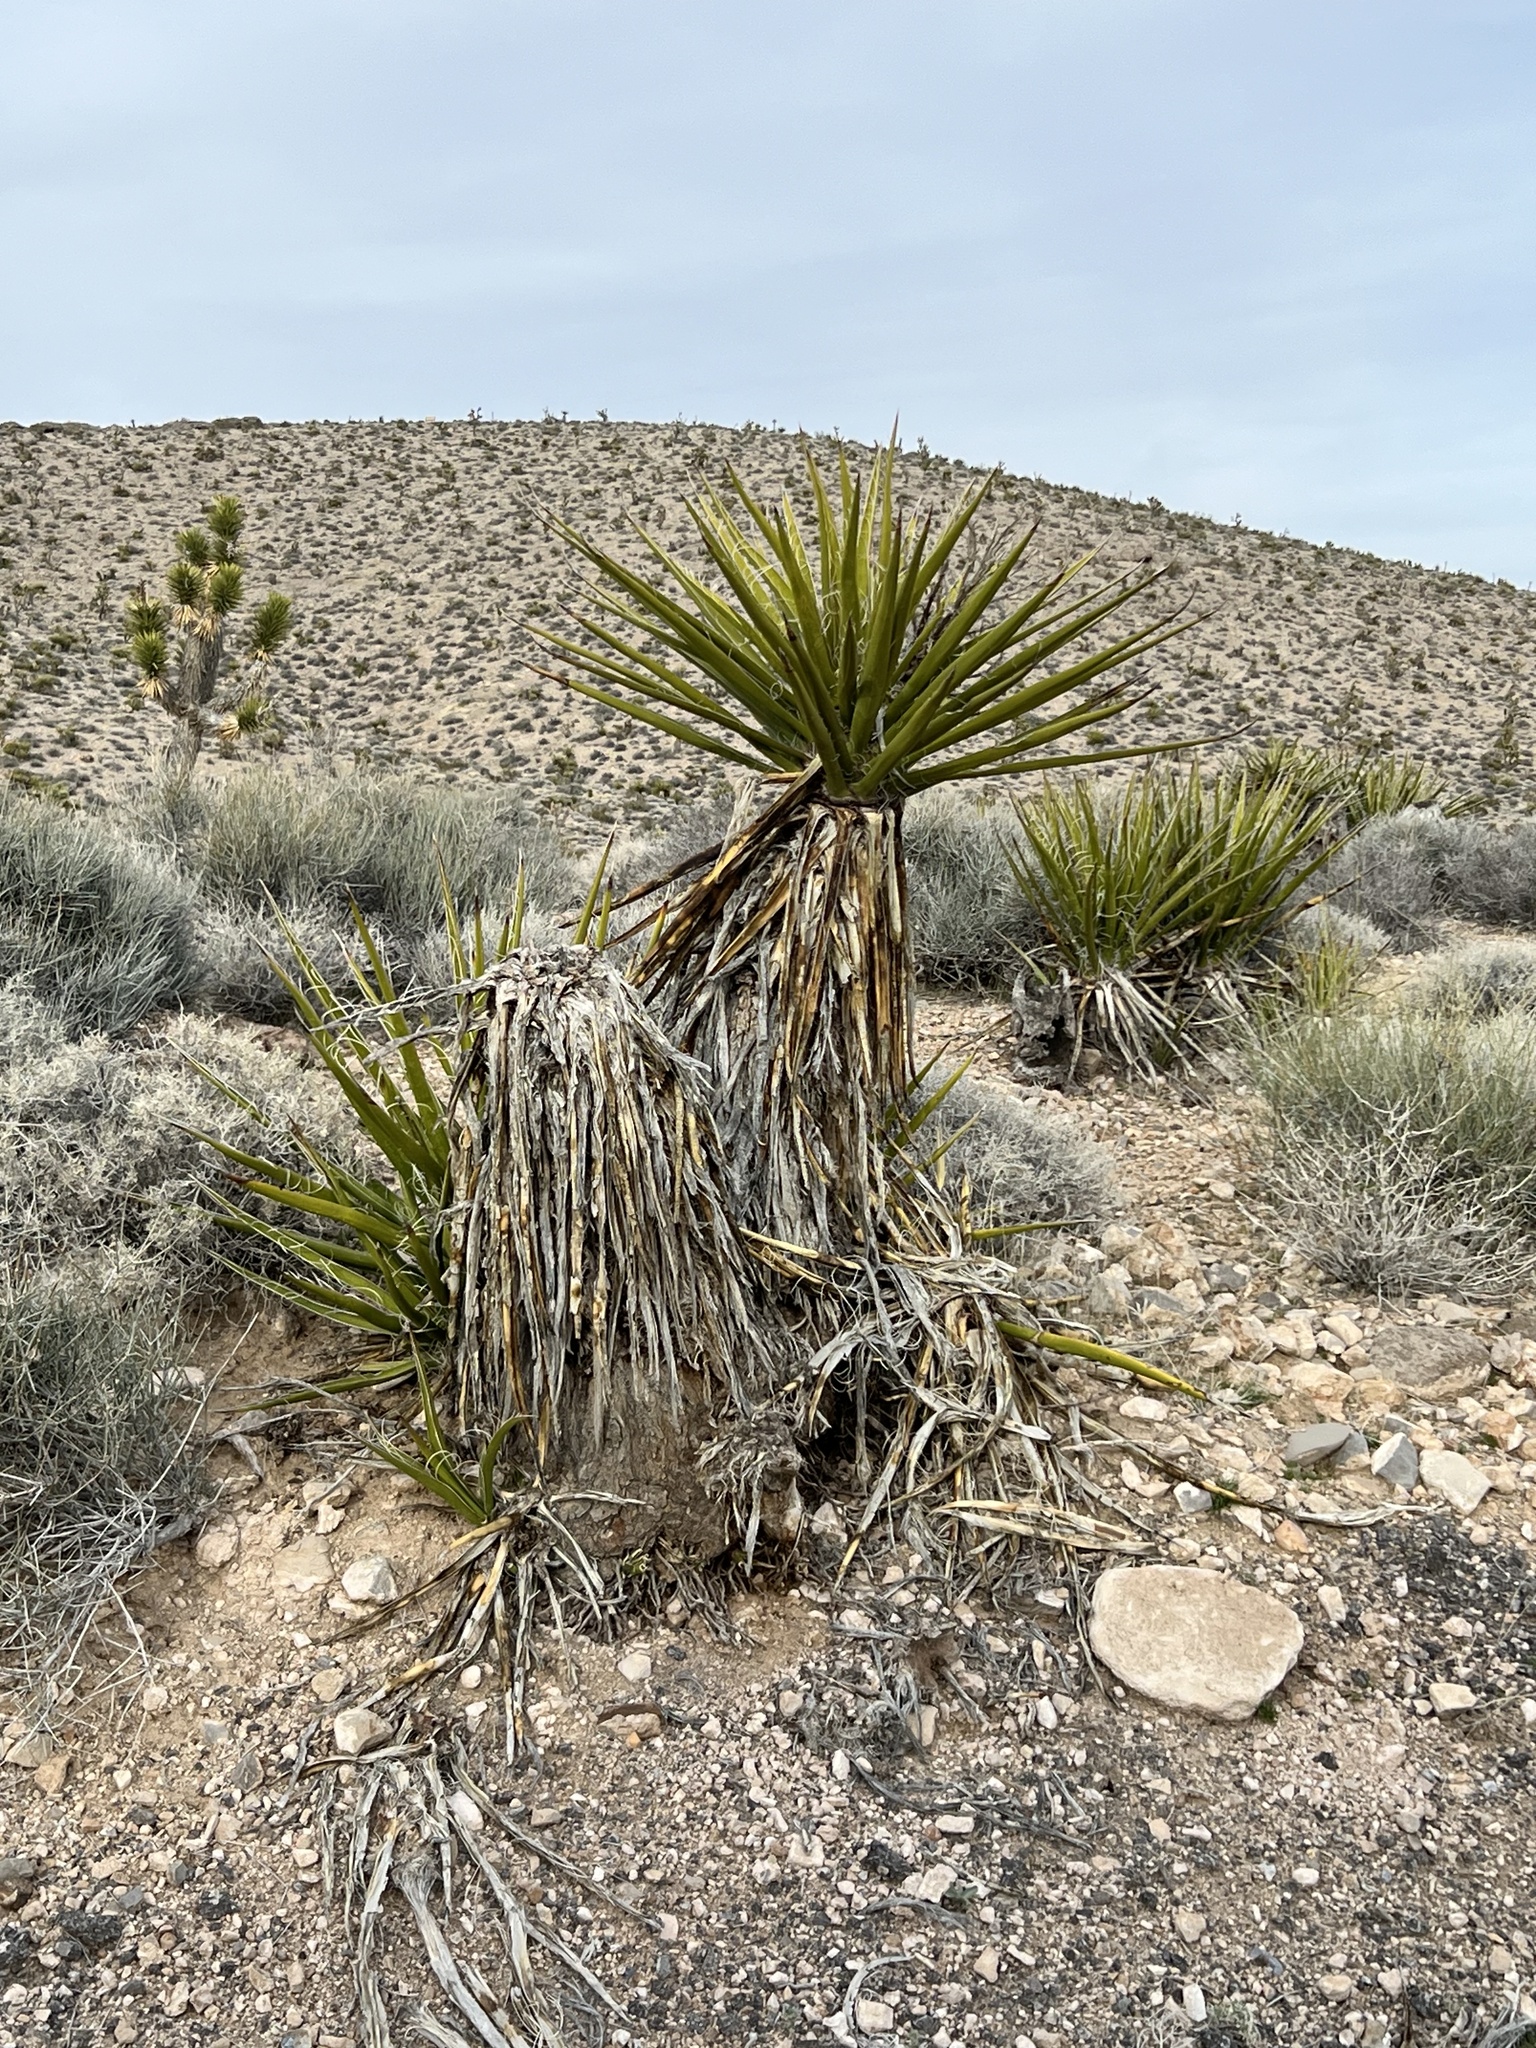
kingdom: Plantae
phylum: Tracheophyta
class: Liliopsida
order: Asparagales
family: Asparagaceae
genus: Yucca
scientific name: Yucca schidigera
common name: Mojave yucca
